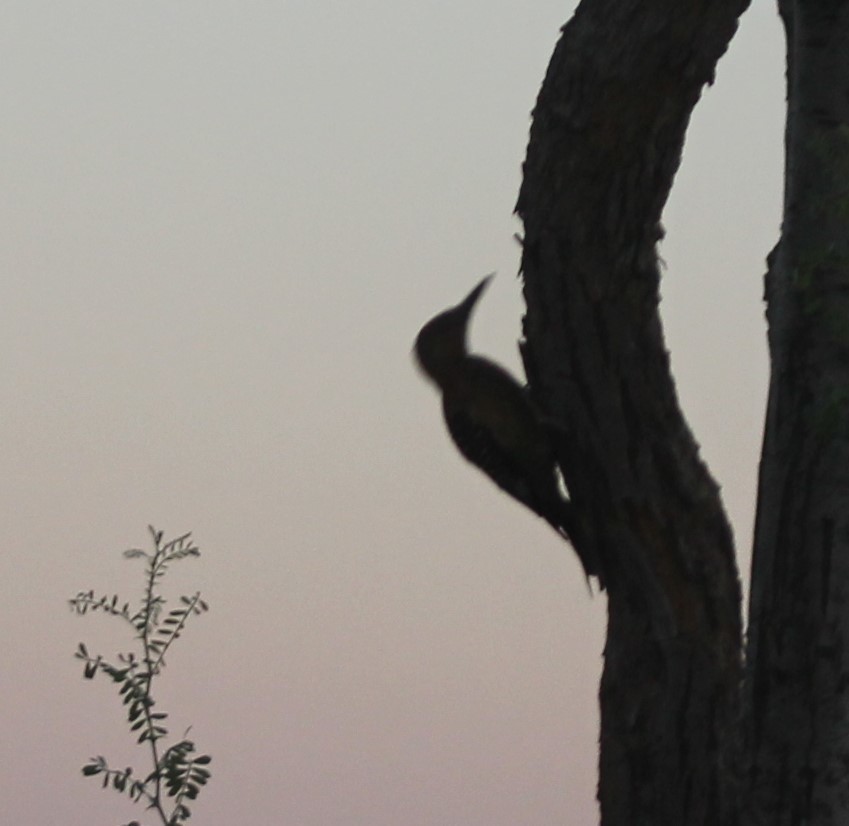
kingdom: Animalia
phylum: Chordata
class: Aves
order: Piciformes
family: Picidae
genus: Melanerpes
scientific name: Melanerpes uropygialis
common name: Gila woodpecker
